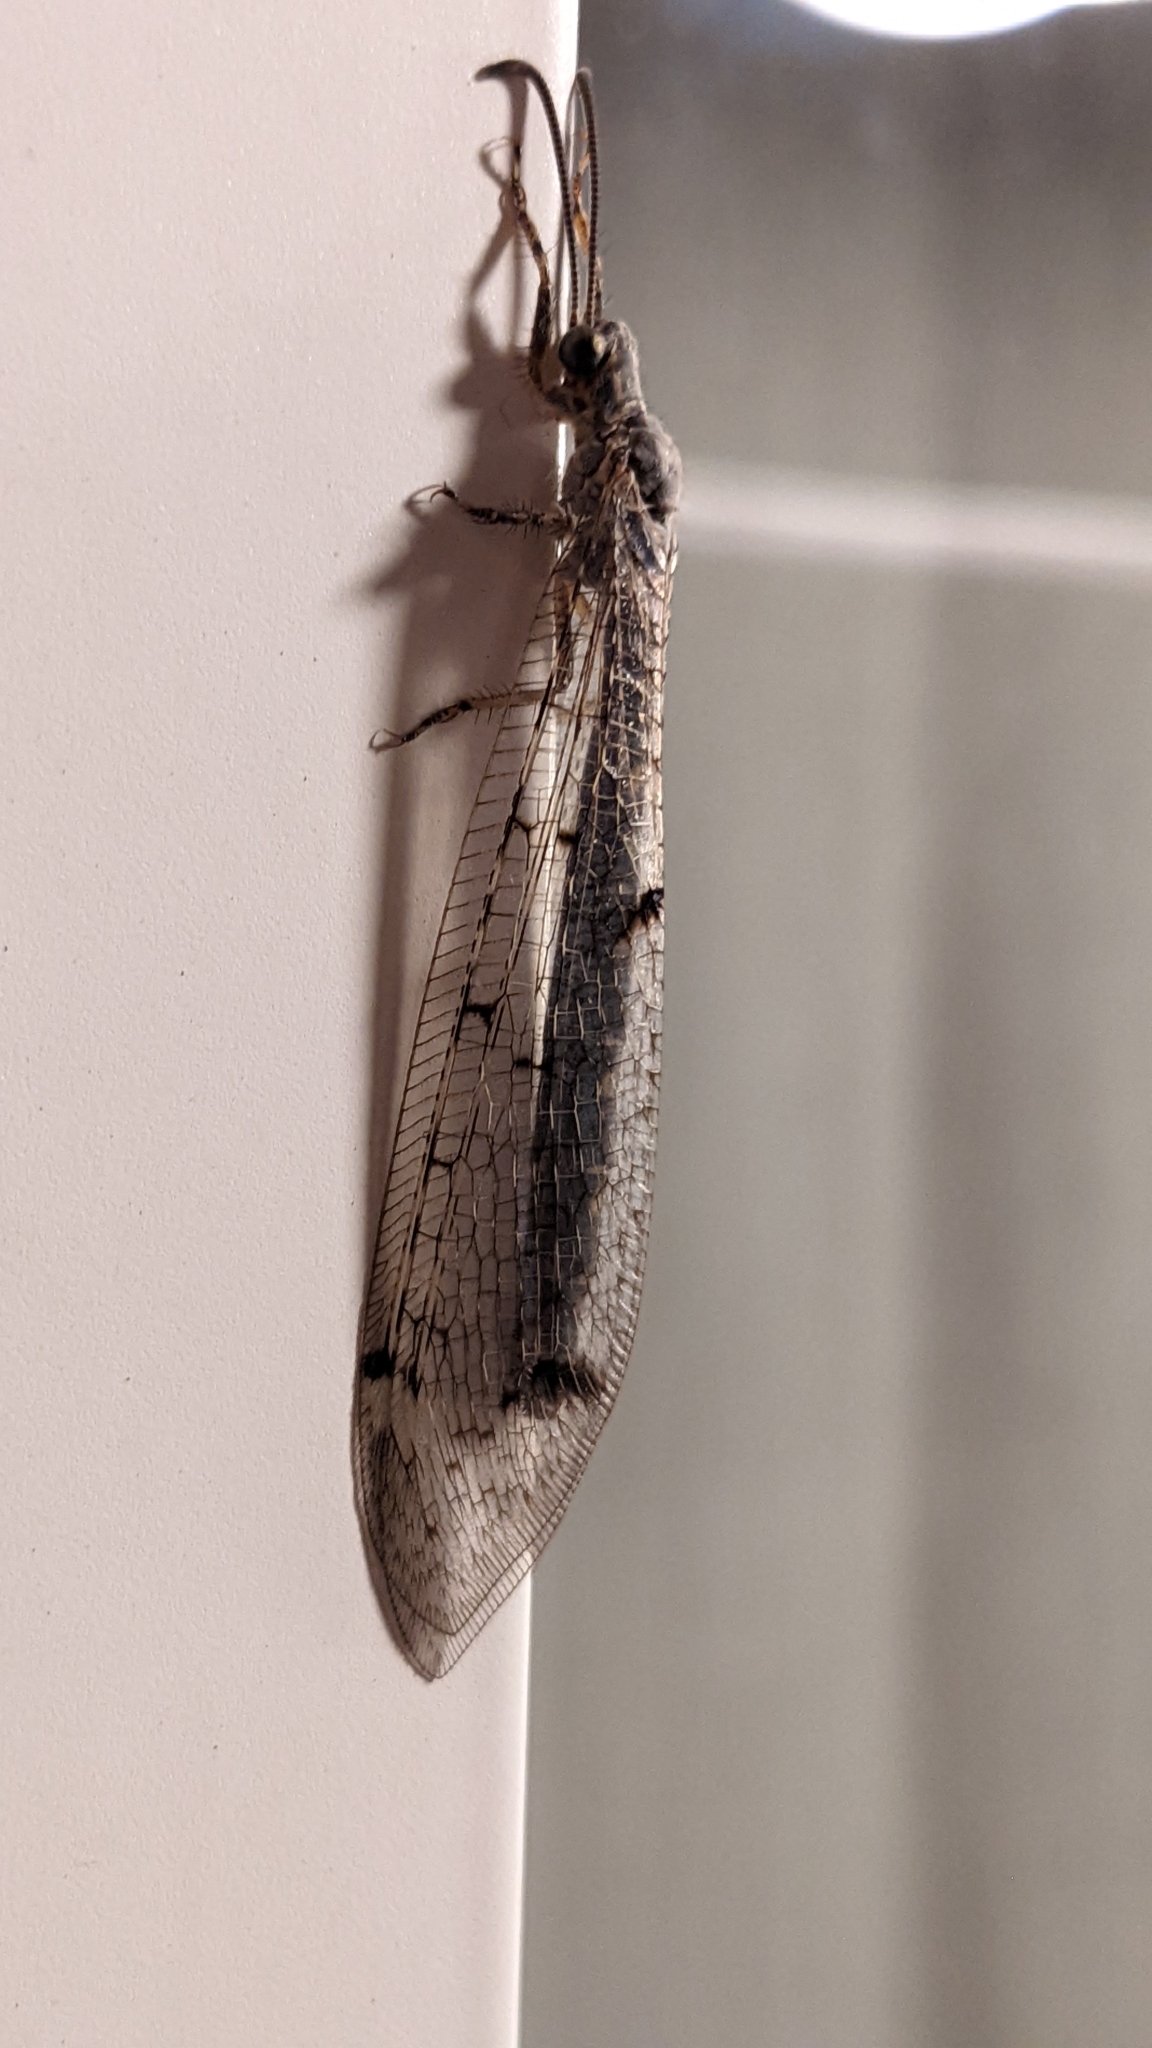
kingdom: Animalia
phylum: Arthropoda
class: Insecta
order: Neuroptera
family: Myrmeleontidae
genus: Distoleon
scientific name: Distoleon tetragrammicus
